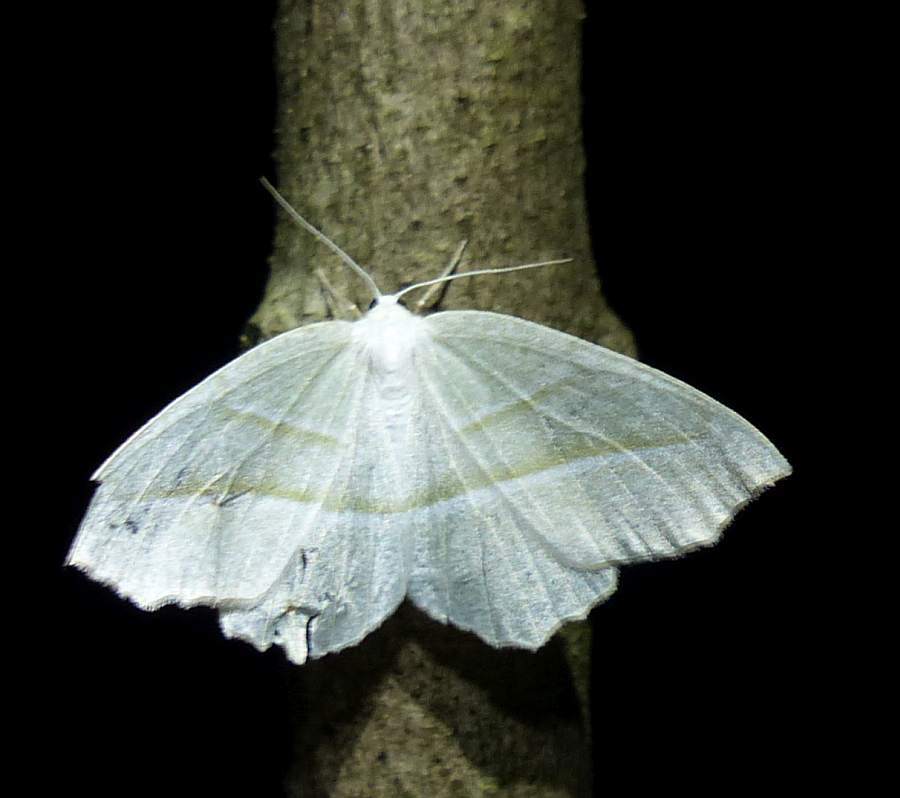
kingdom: Animalia
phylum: Arthropoda
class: Insecta
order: Lepidoptera
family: Geometridae
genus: Campaea
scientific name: Campaea perlata
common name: Fringed looper
